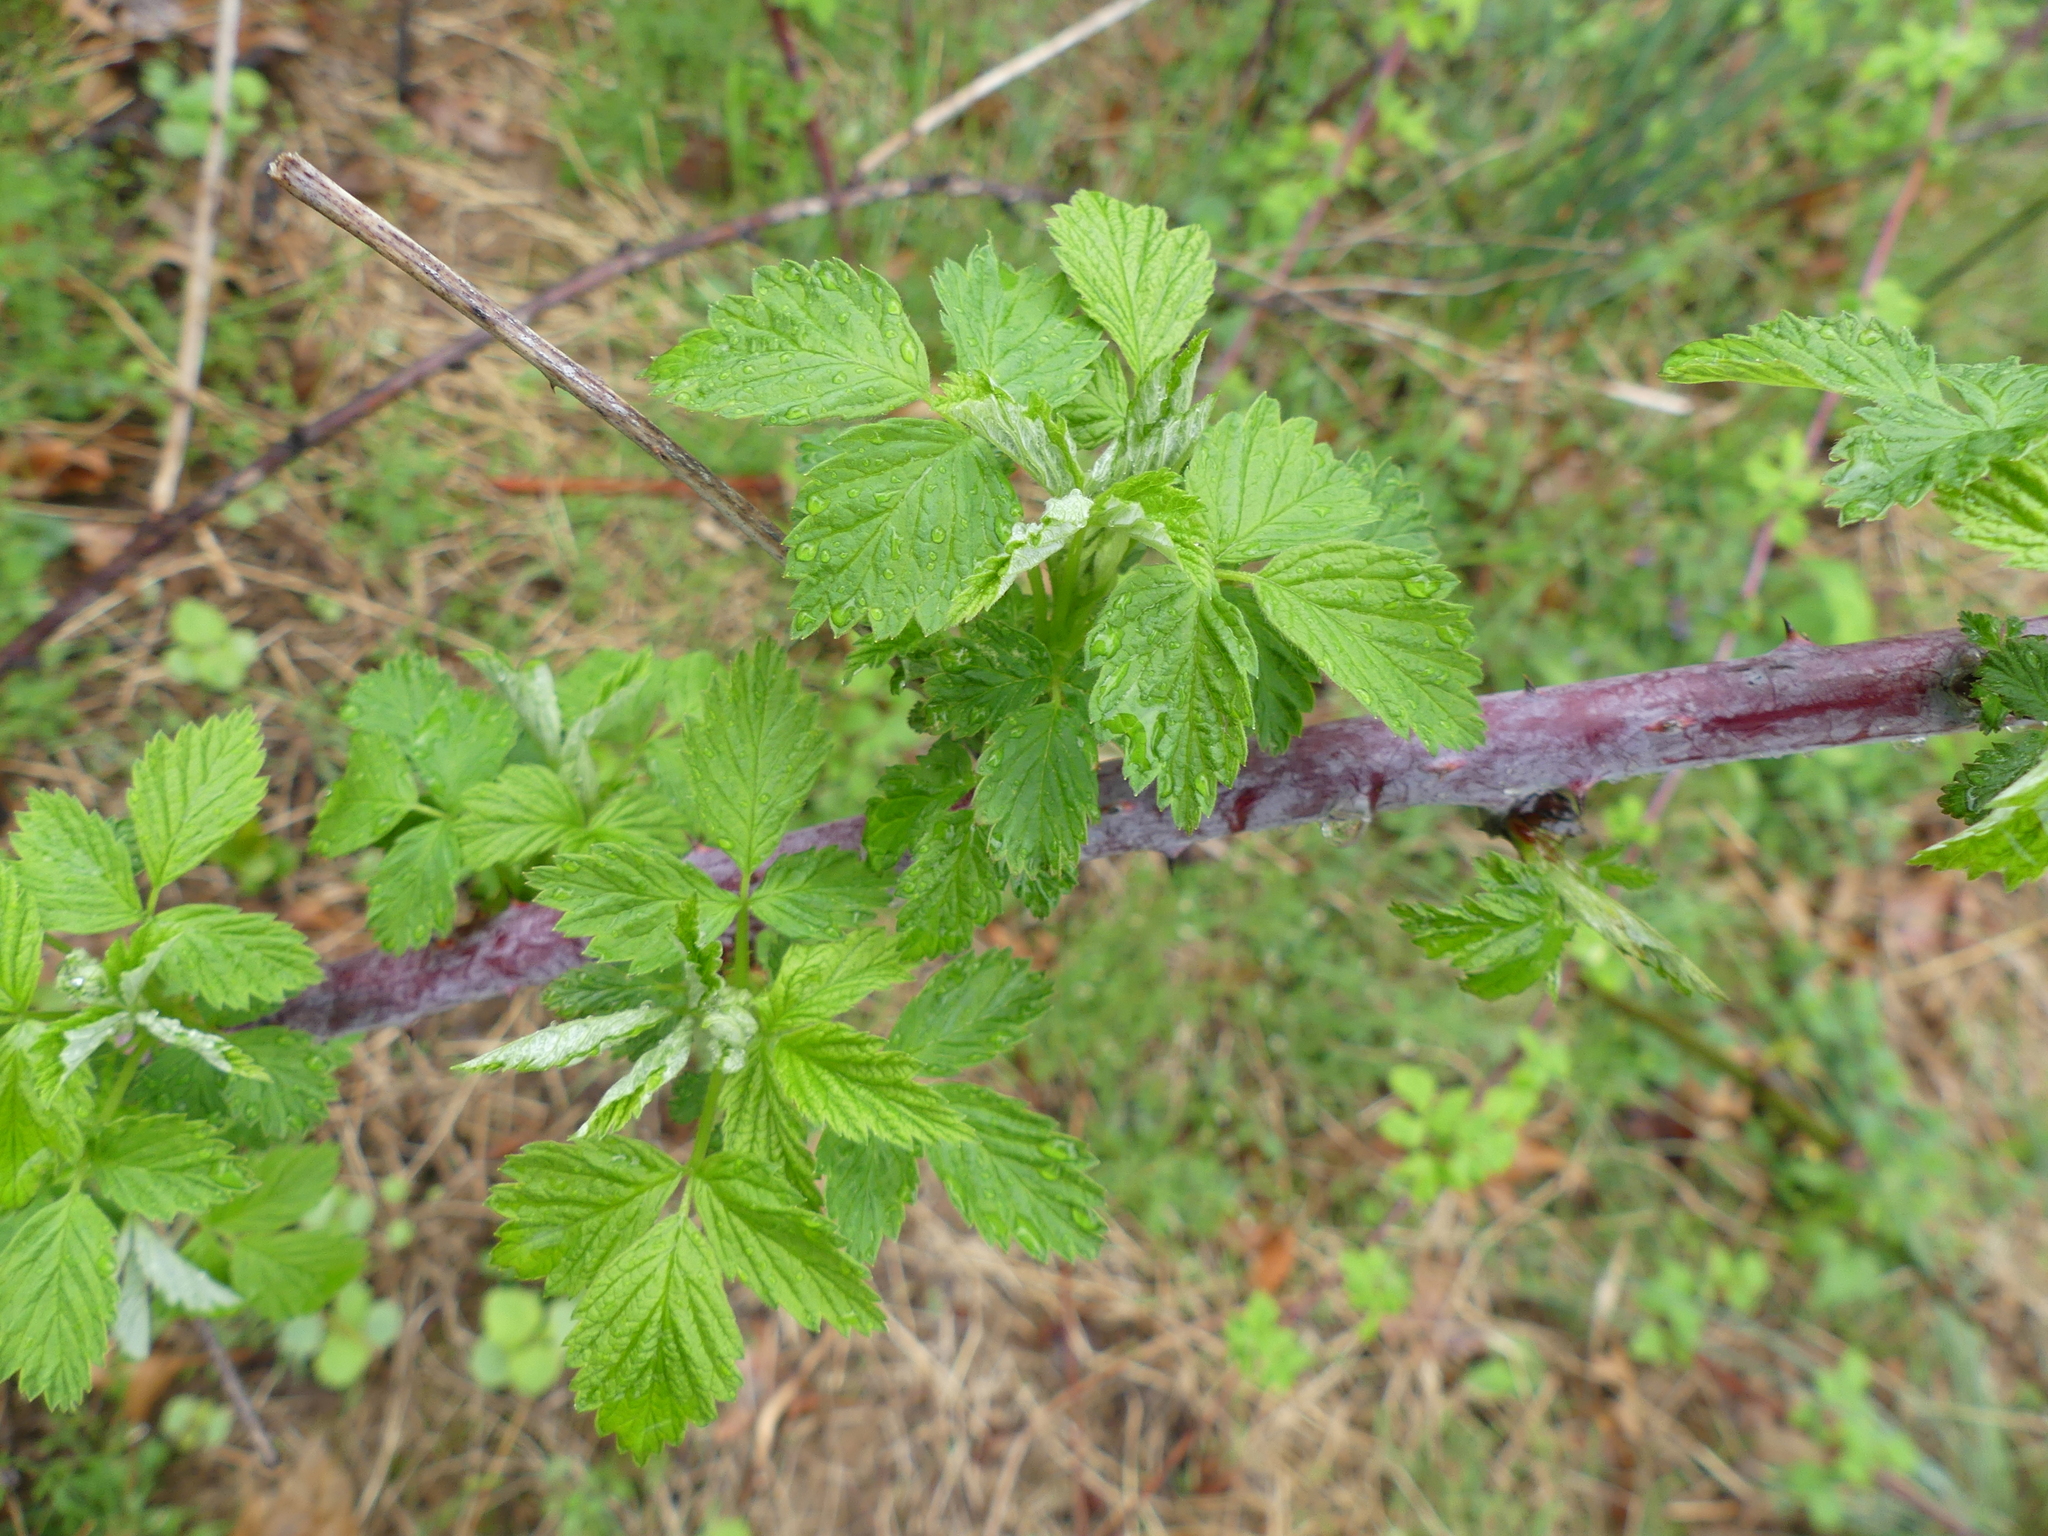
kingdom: Plantae
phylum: Tracheophyta
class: Magnoliopsida
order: Rosales
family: Rosaceae
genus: Rubus
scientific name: Rubus occidentalis
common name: Black raspberry
